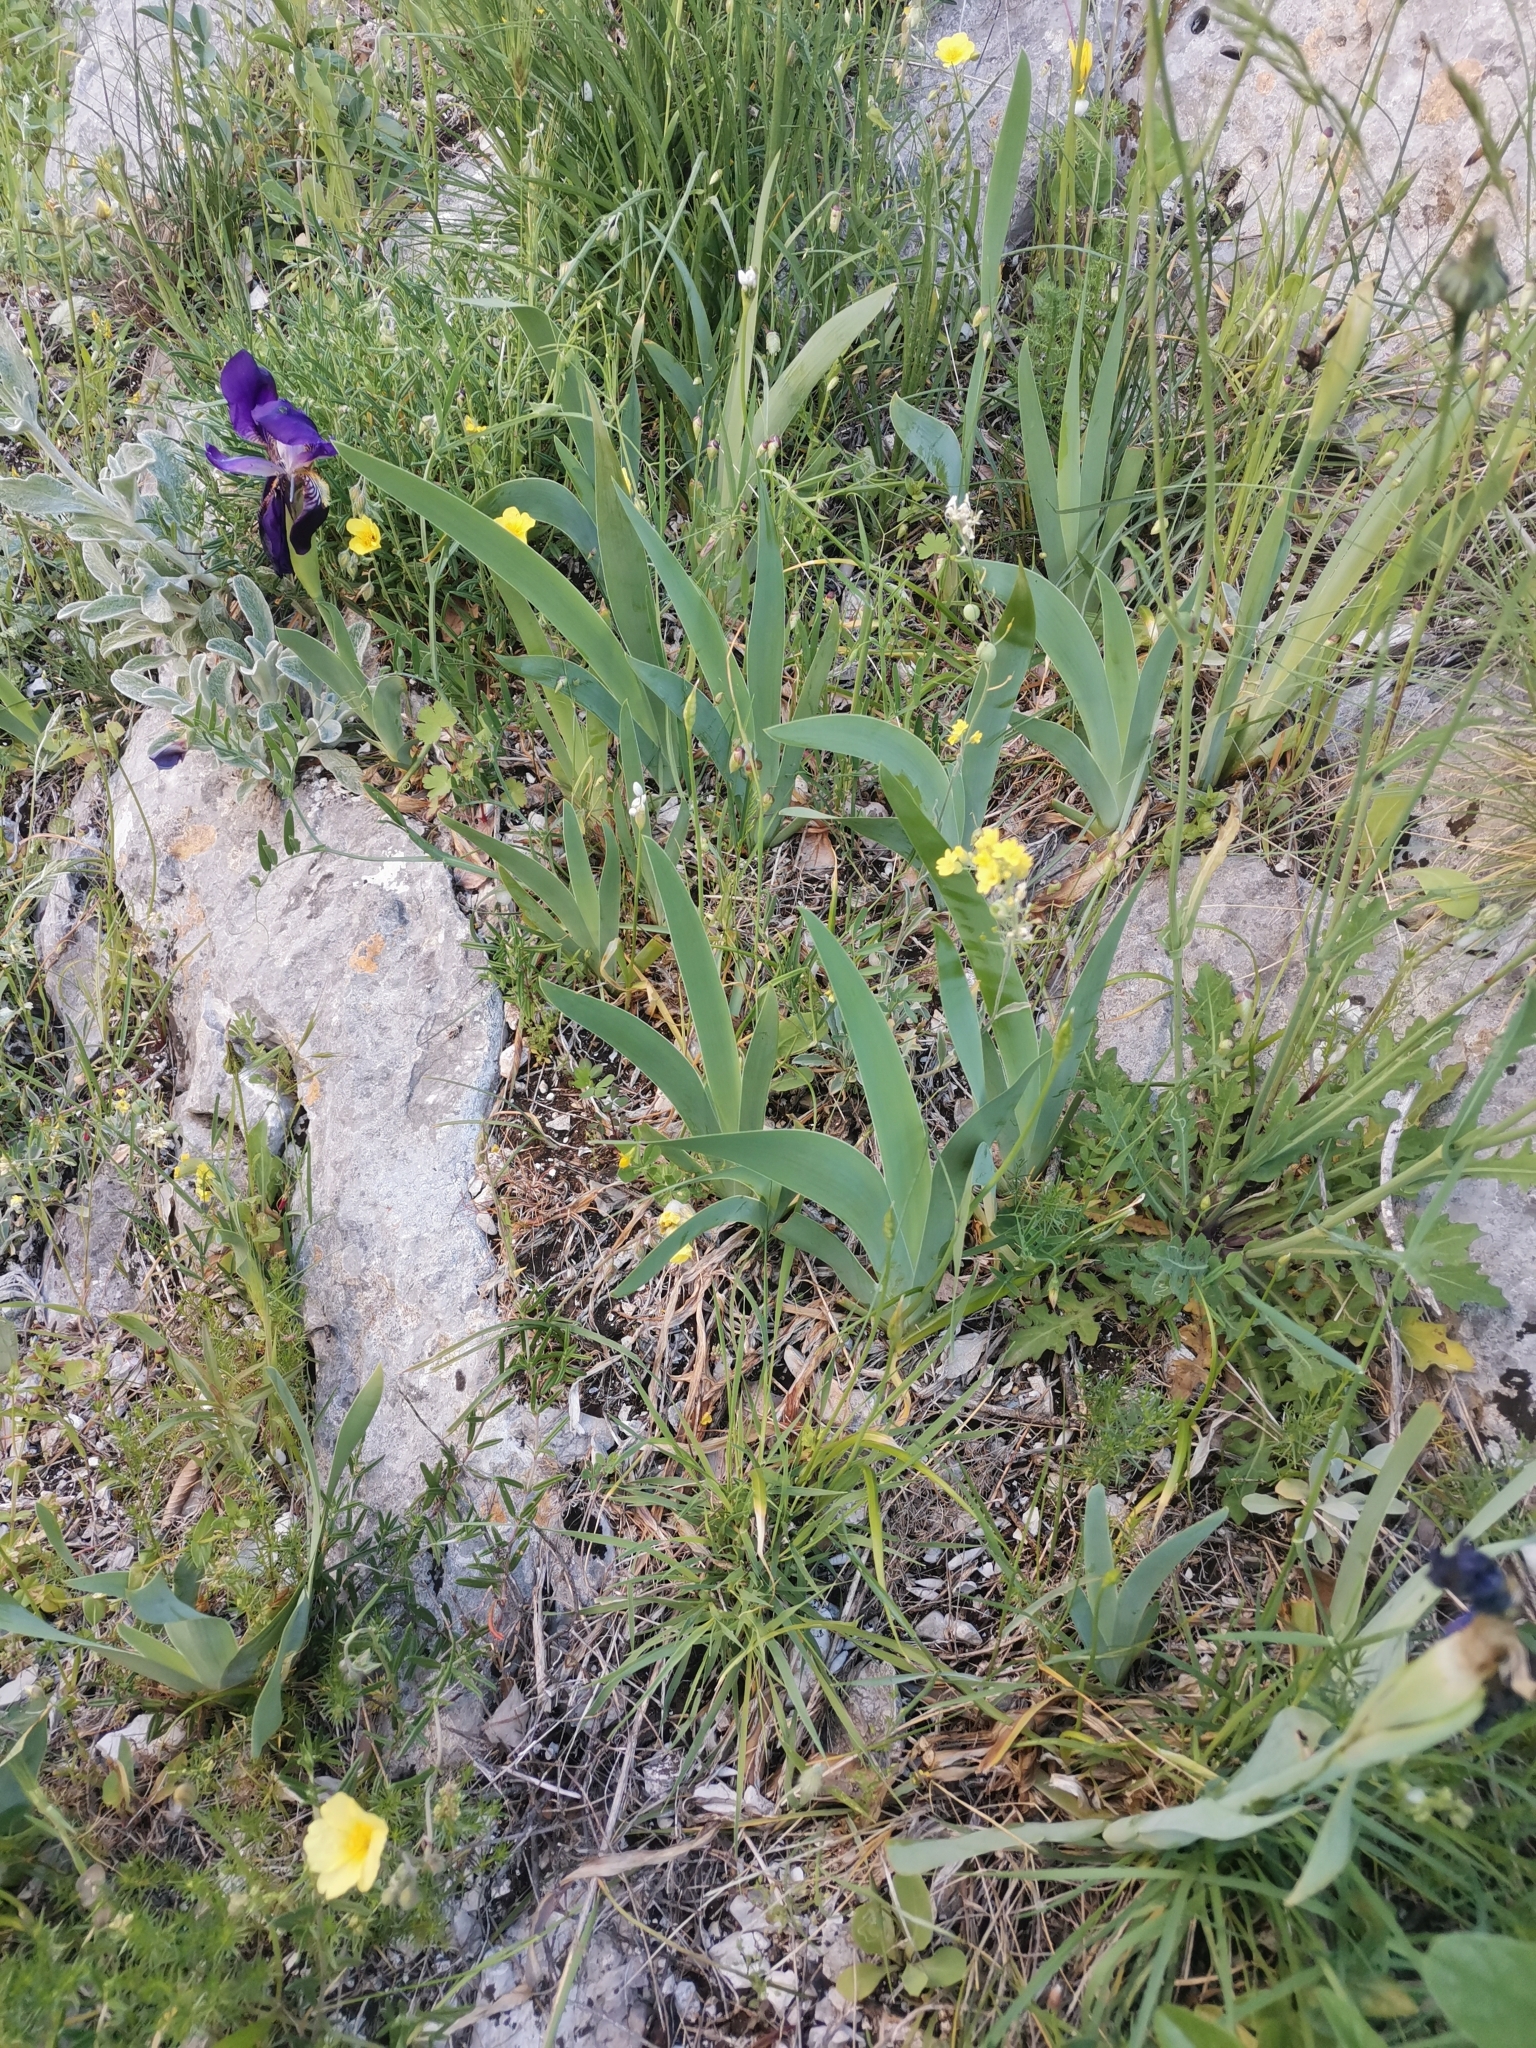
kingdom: Plantae
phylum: Tracheophyta
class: Liliopsida
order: Asparagales
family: Iridaceae
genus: Iris
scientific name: Iris bicapitata
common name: Gargano iris
